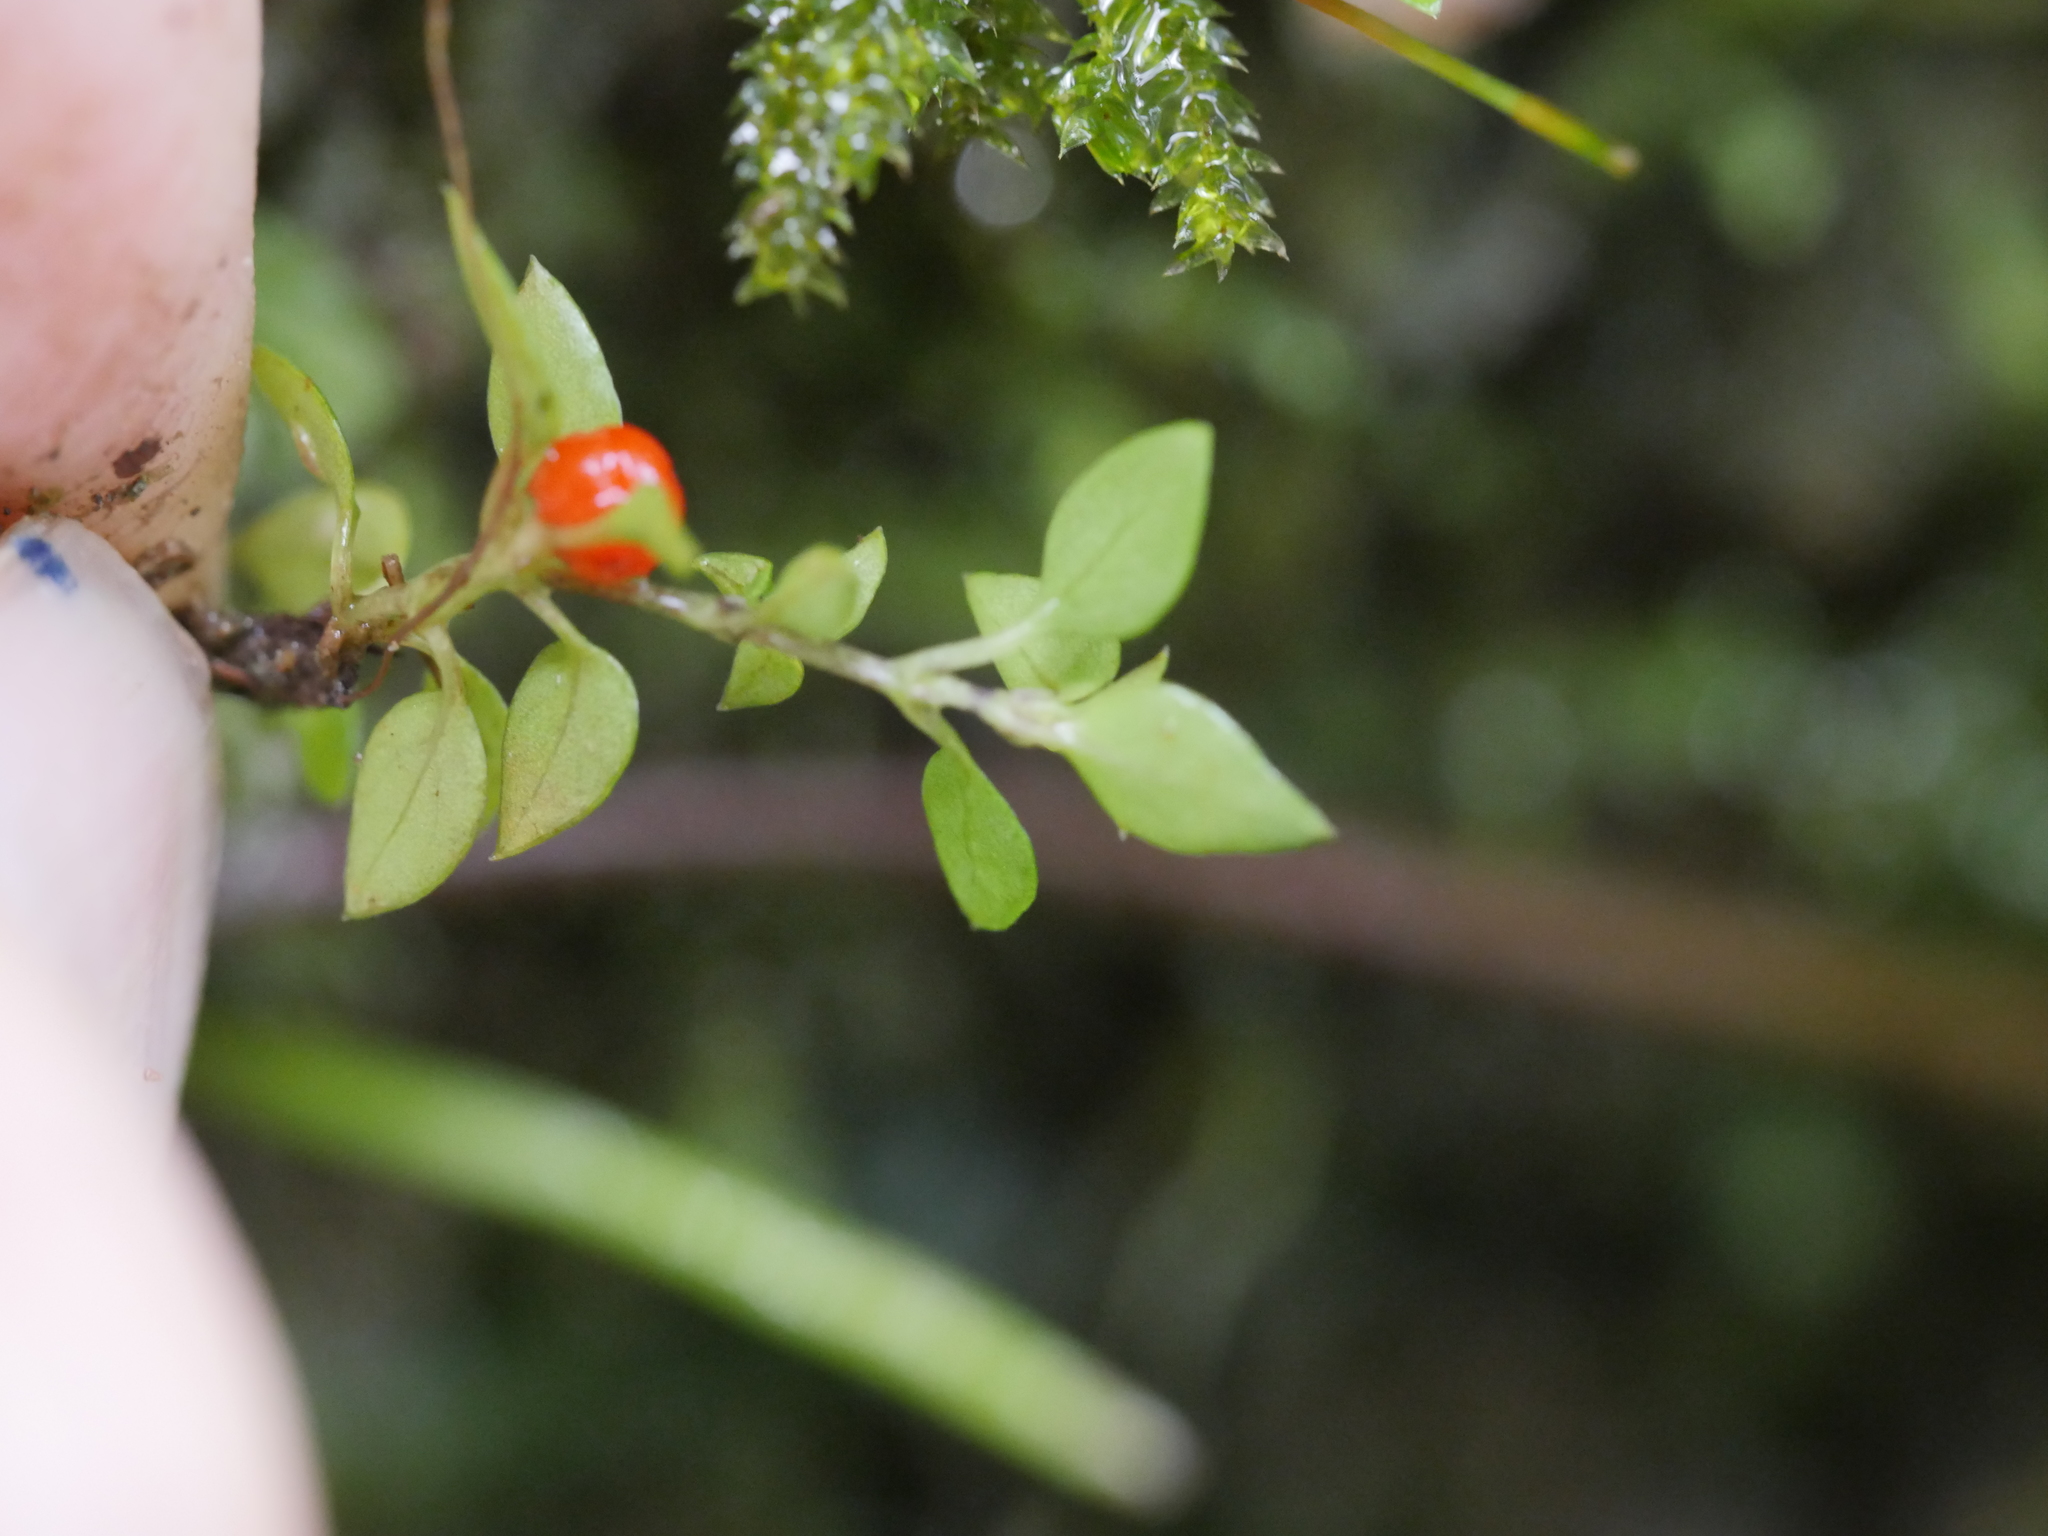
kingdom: Plantae
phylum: Tracheophyta
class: Magnoliopsida
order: Gentianales
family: Rubiaceae
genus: Nertera
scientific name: Nertera granadensis
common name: Beadplant
